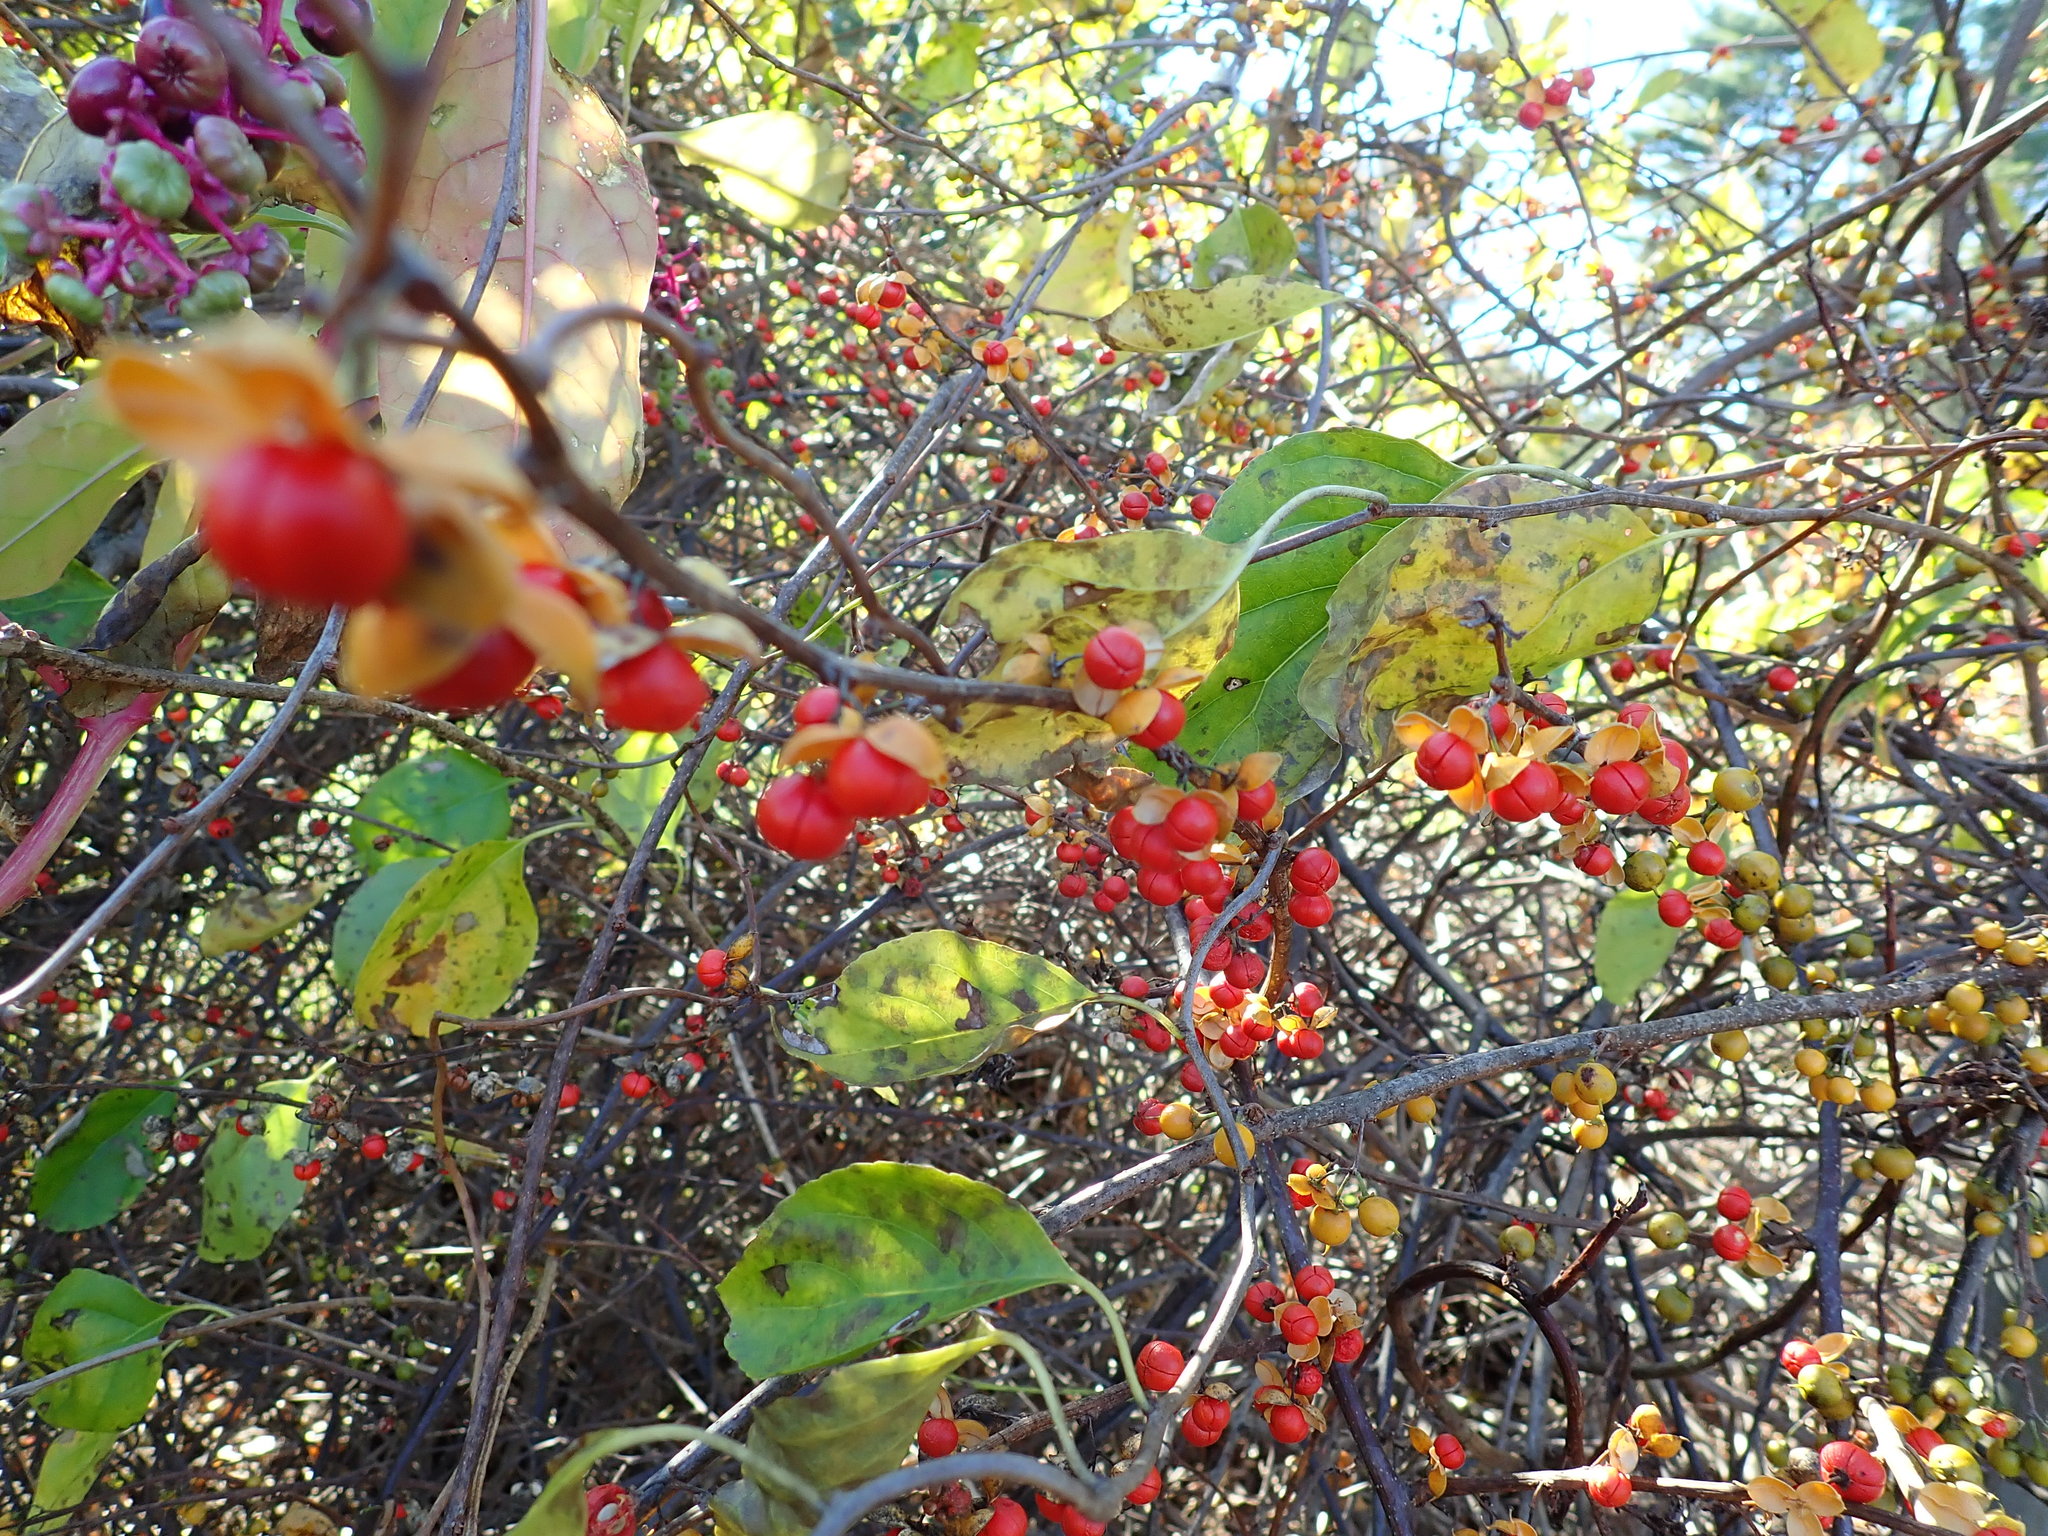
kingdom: Plantae
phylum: Tracheophyta
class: Magnoliopsida
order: Celastrales
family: Celastraceae
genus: Celastrus
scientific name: Celastrus orbiculatus
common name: Oriental bittersweet
